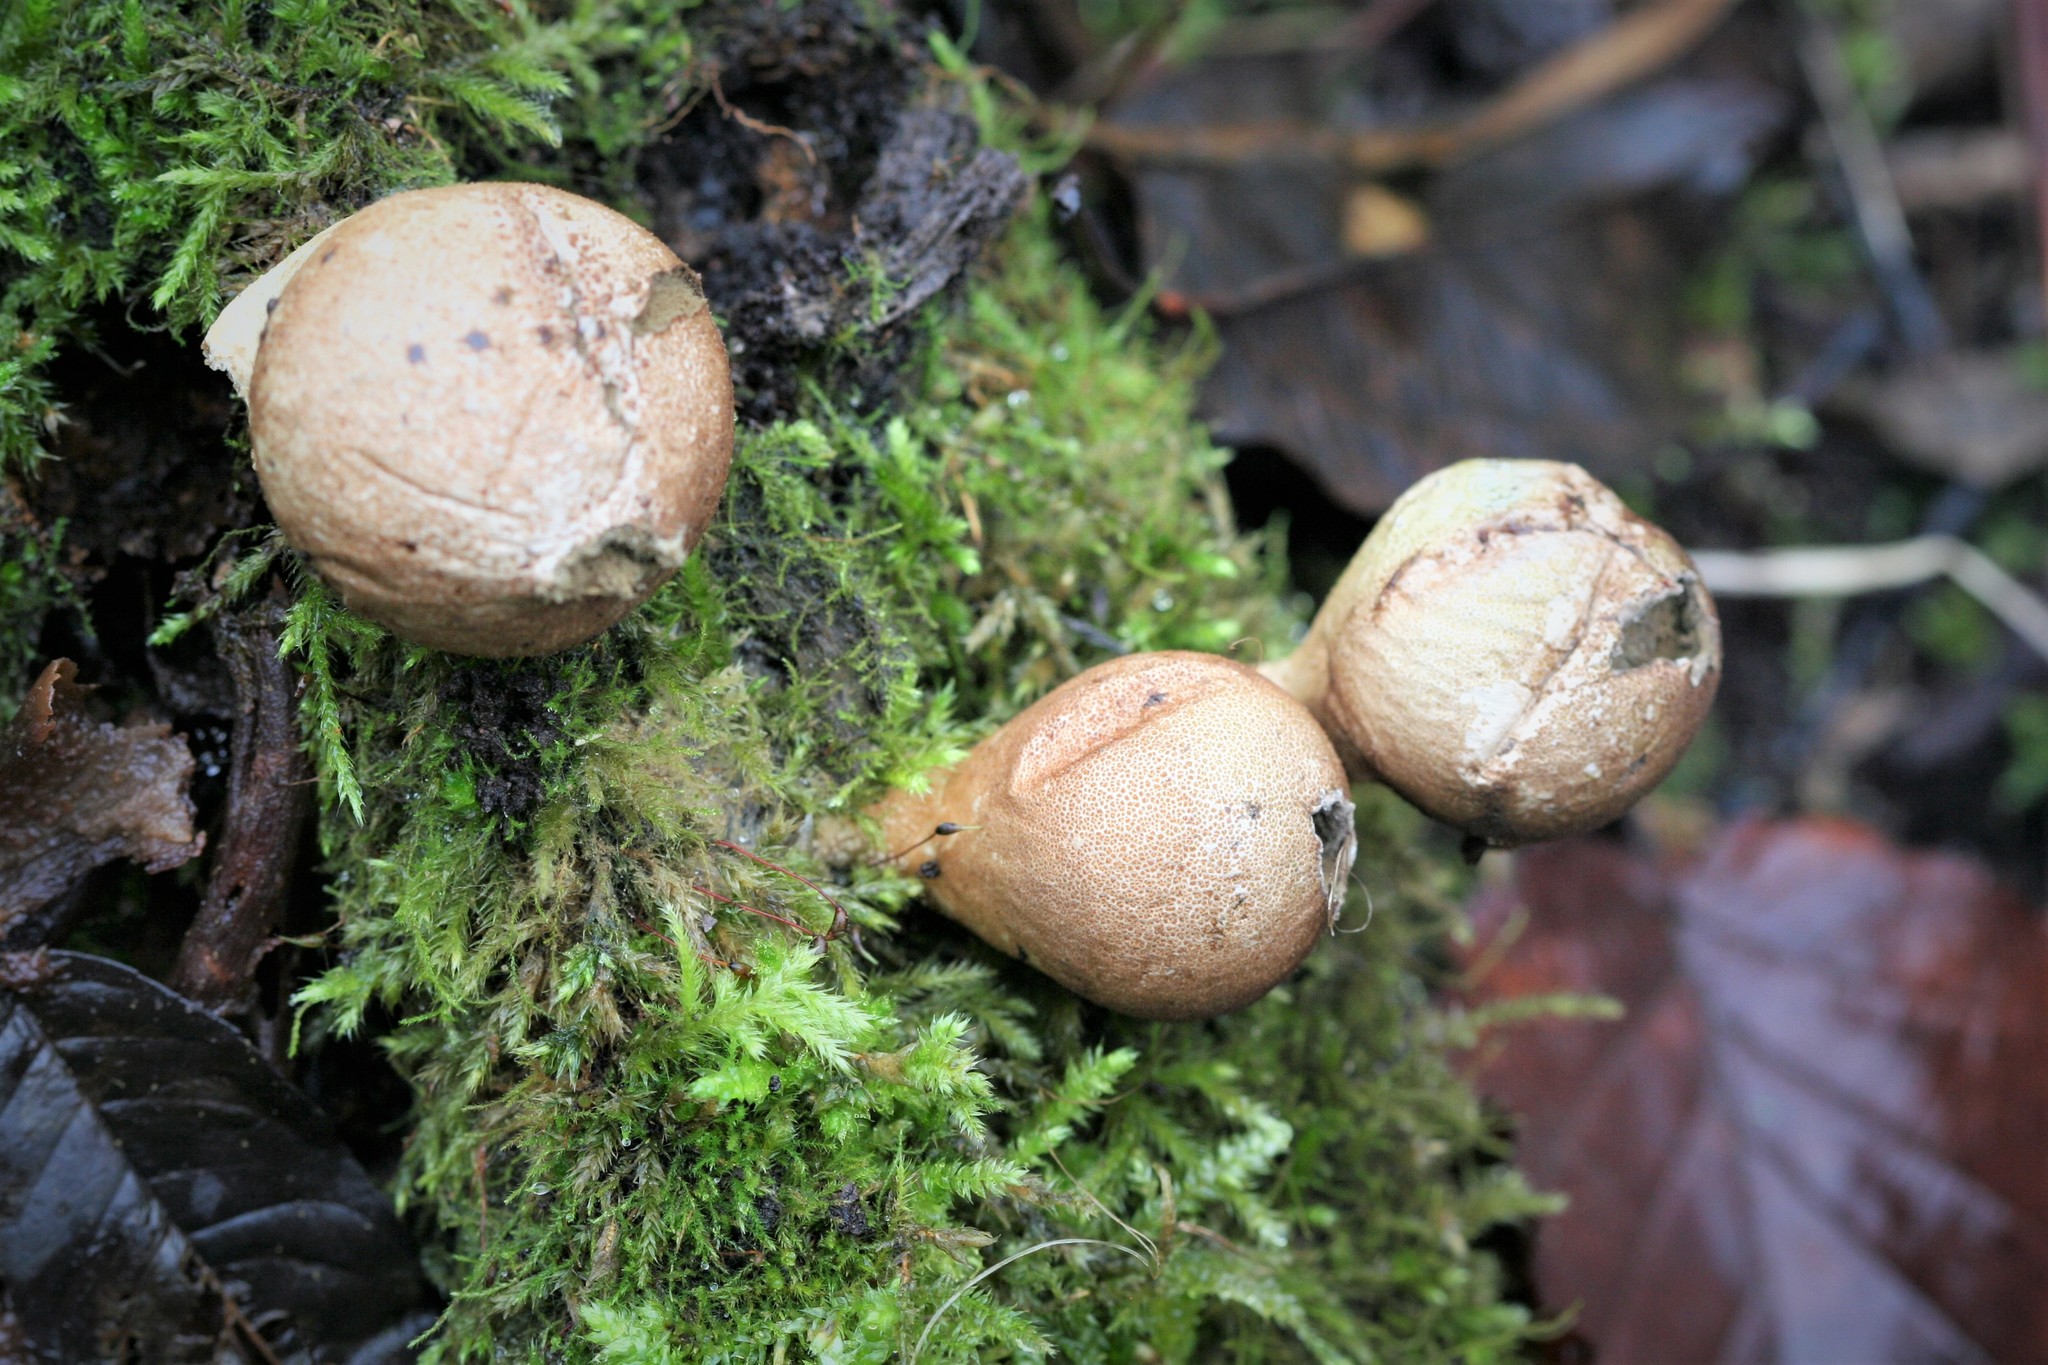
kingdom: Fungi
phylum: Basidiomycota
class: Agaricomycetes
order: Agaricales
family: Lycoperdaceae
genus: Apioperdon
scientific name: Apioperdon pyriforme
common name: Pear-shaped puffball
